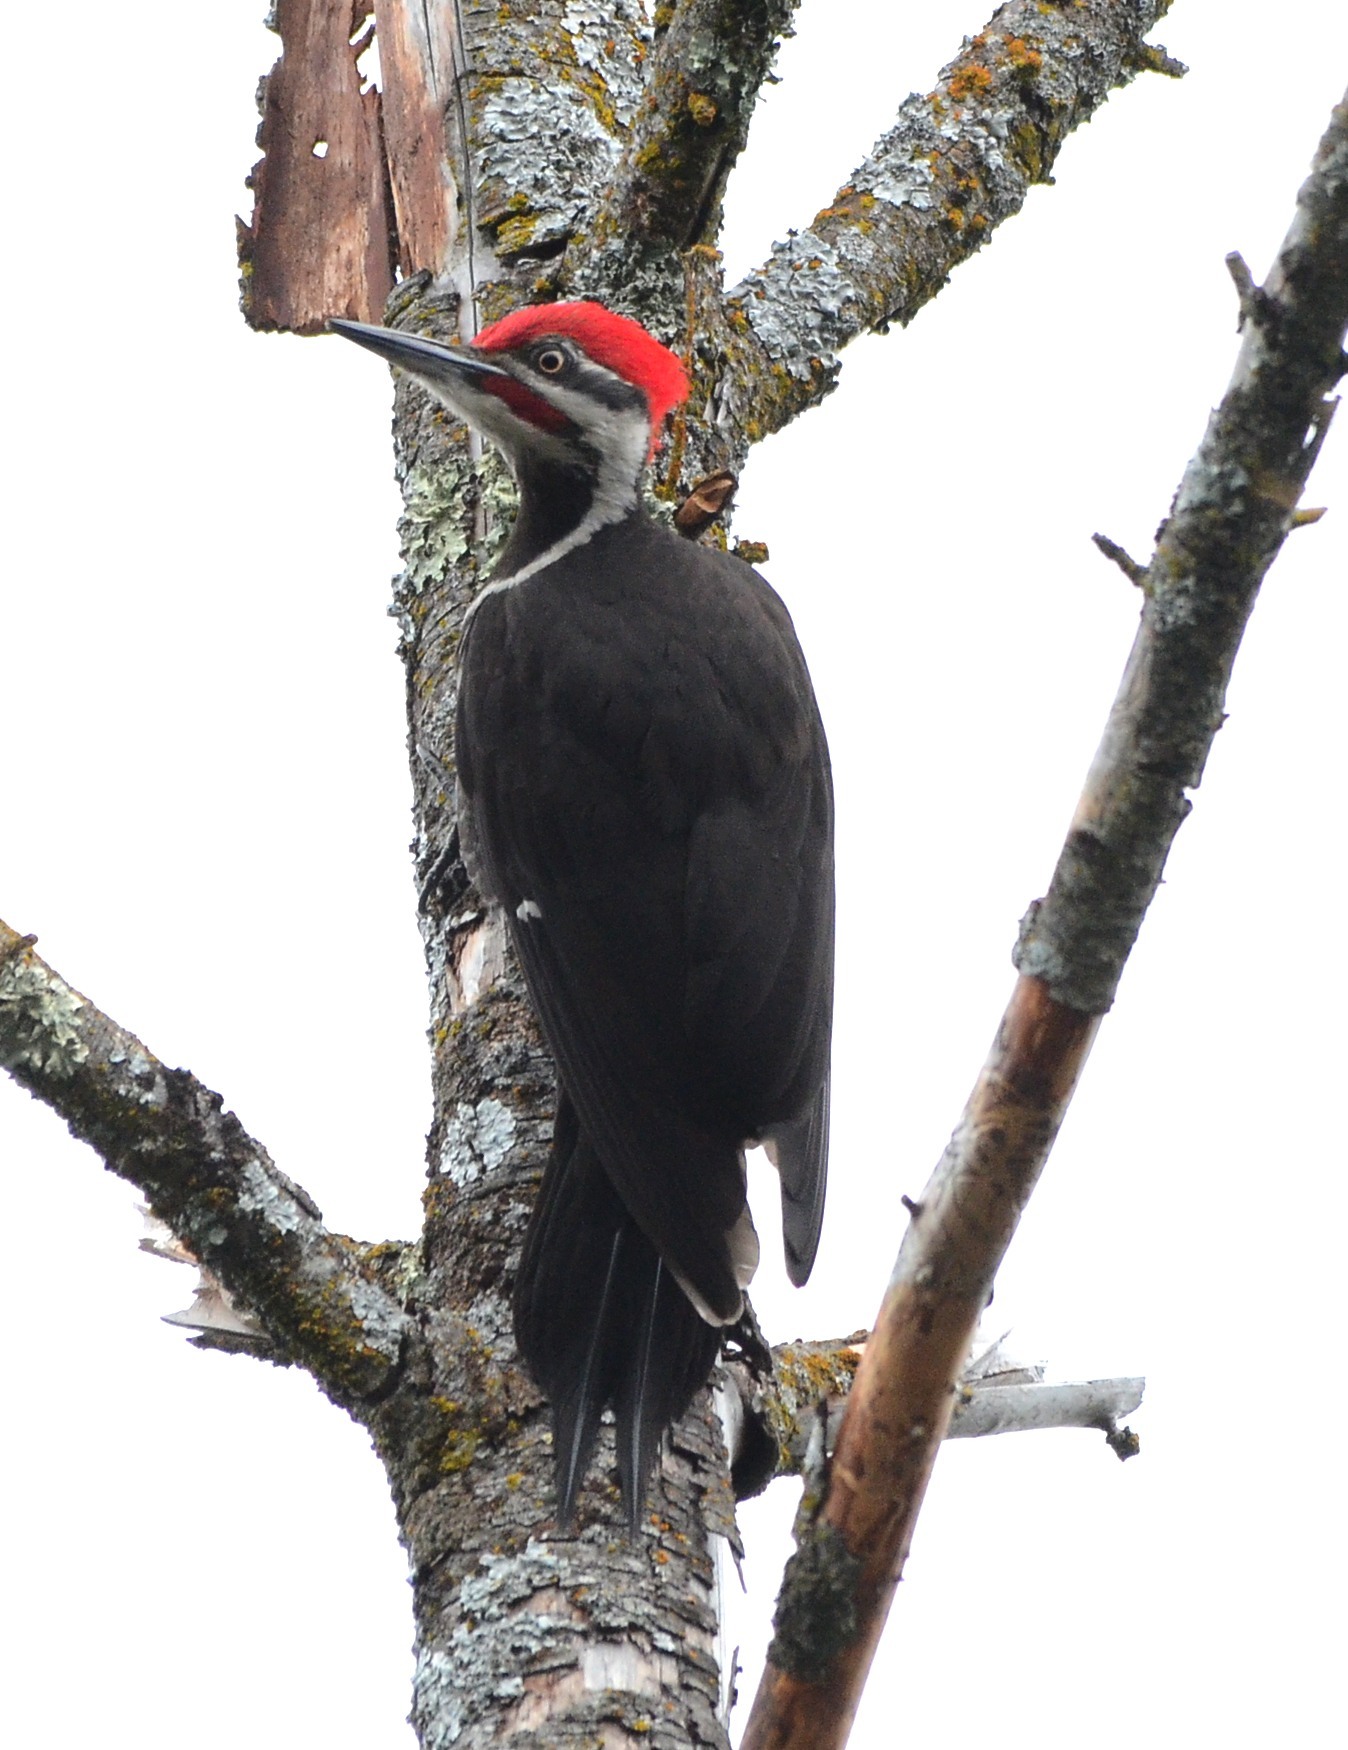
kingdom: Animalia
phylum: Chordata
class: Aves
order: Piciformes
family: Picidae
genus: Dryocopus
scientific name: Dryocopus pileatus
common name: Pileated woodpecker
